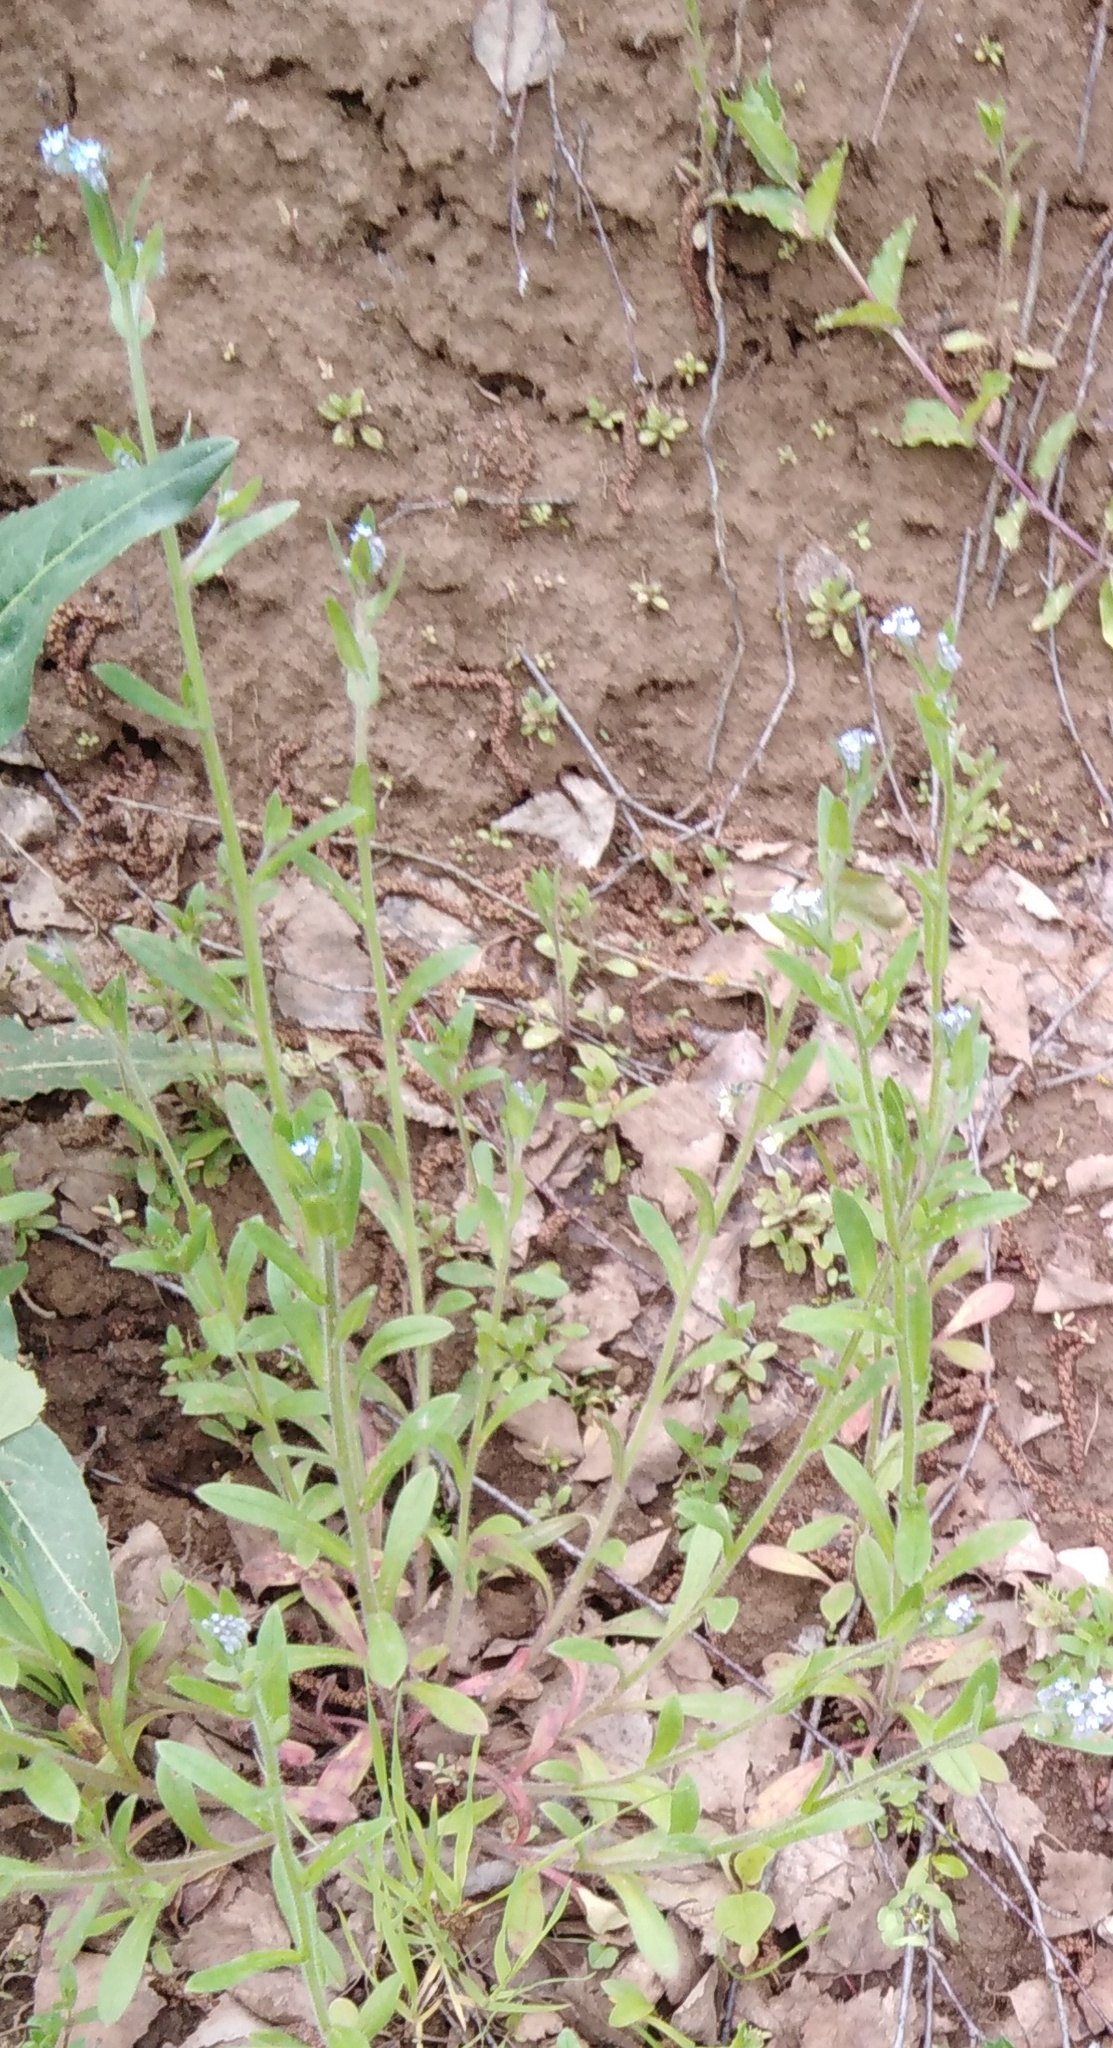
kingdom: Plantae
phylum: Tracheophyta
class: Magnoliopsida
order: Boraginales
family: Boraginaceae
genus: Myosotis
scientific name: Myosotis arvensis
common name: Field forget-me-not
